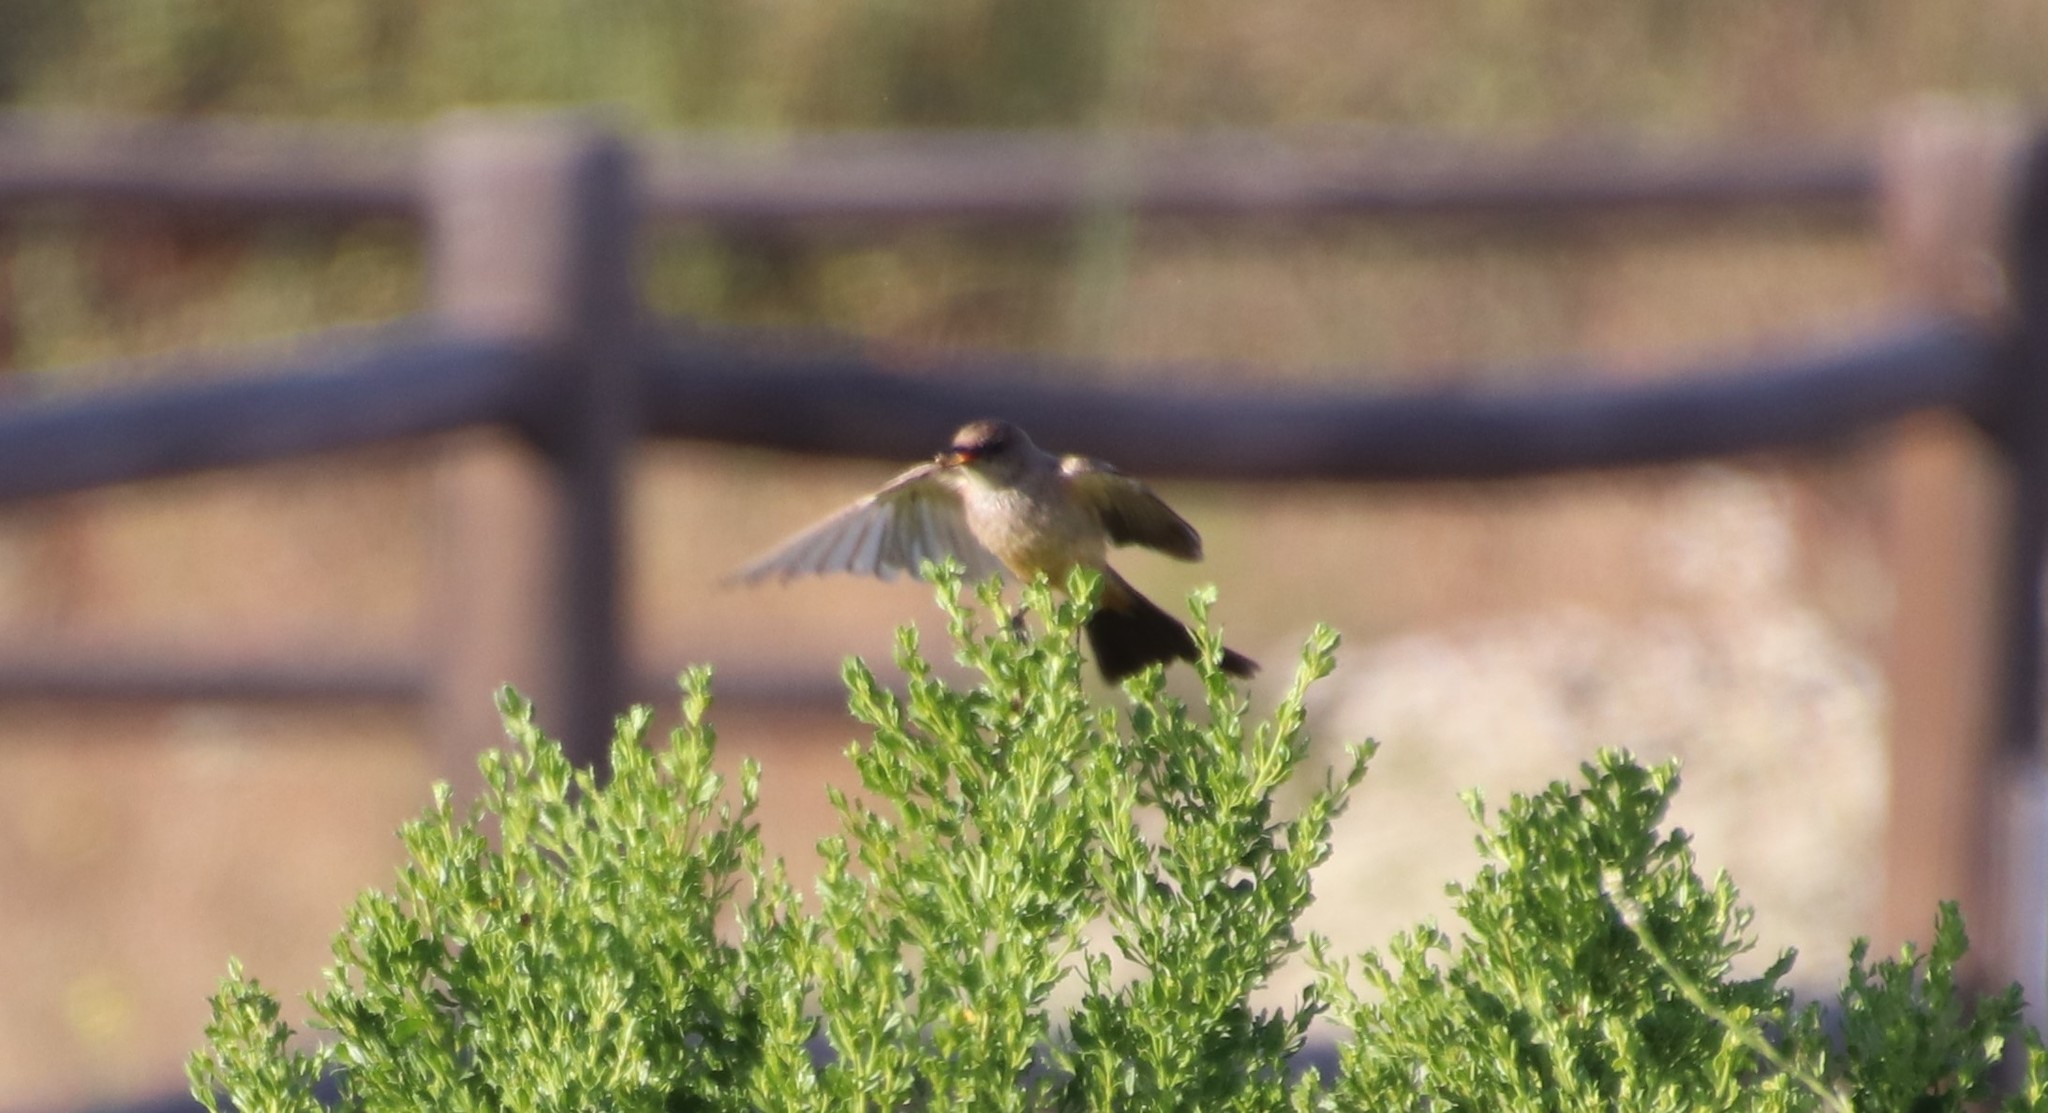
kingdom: Animalia
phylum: Chordata
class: Aves
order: Passeriformes
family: Tyrannidae
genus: Sayornis
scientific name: Sayornis saya
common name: Say's phoebe
